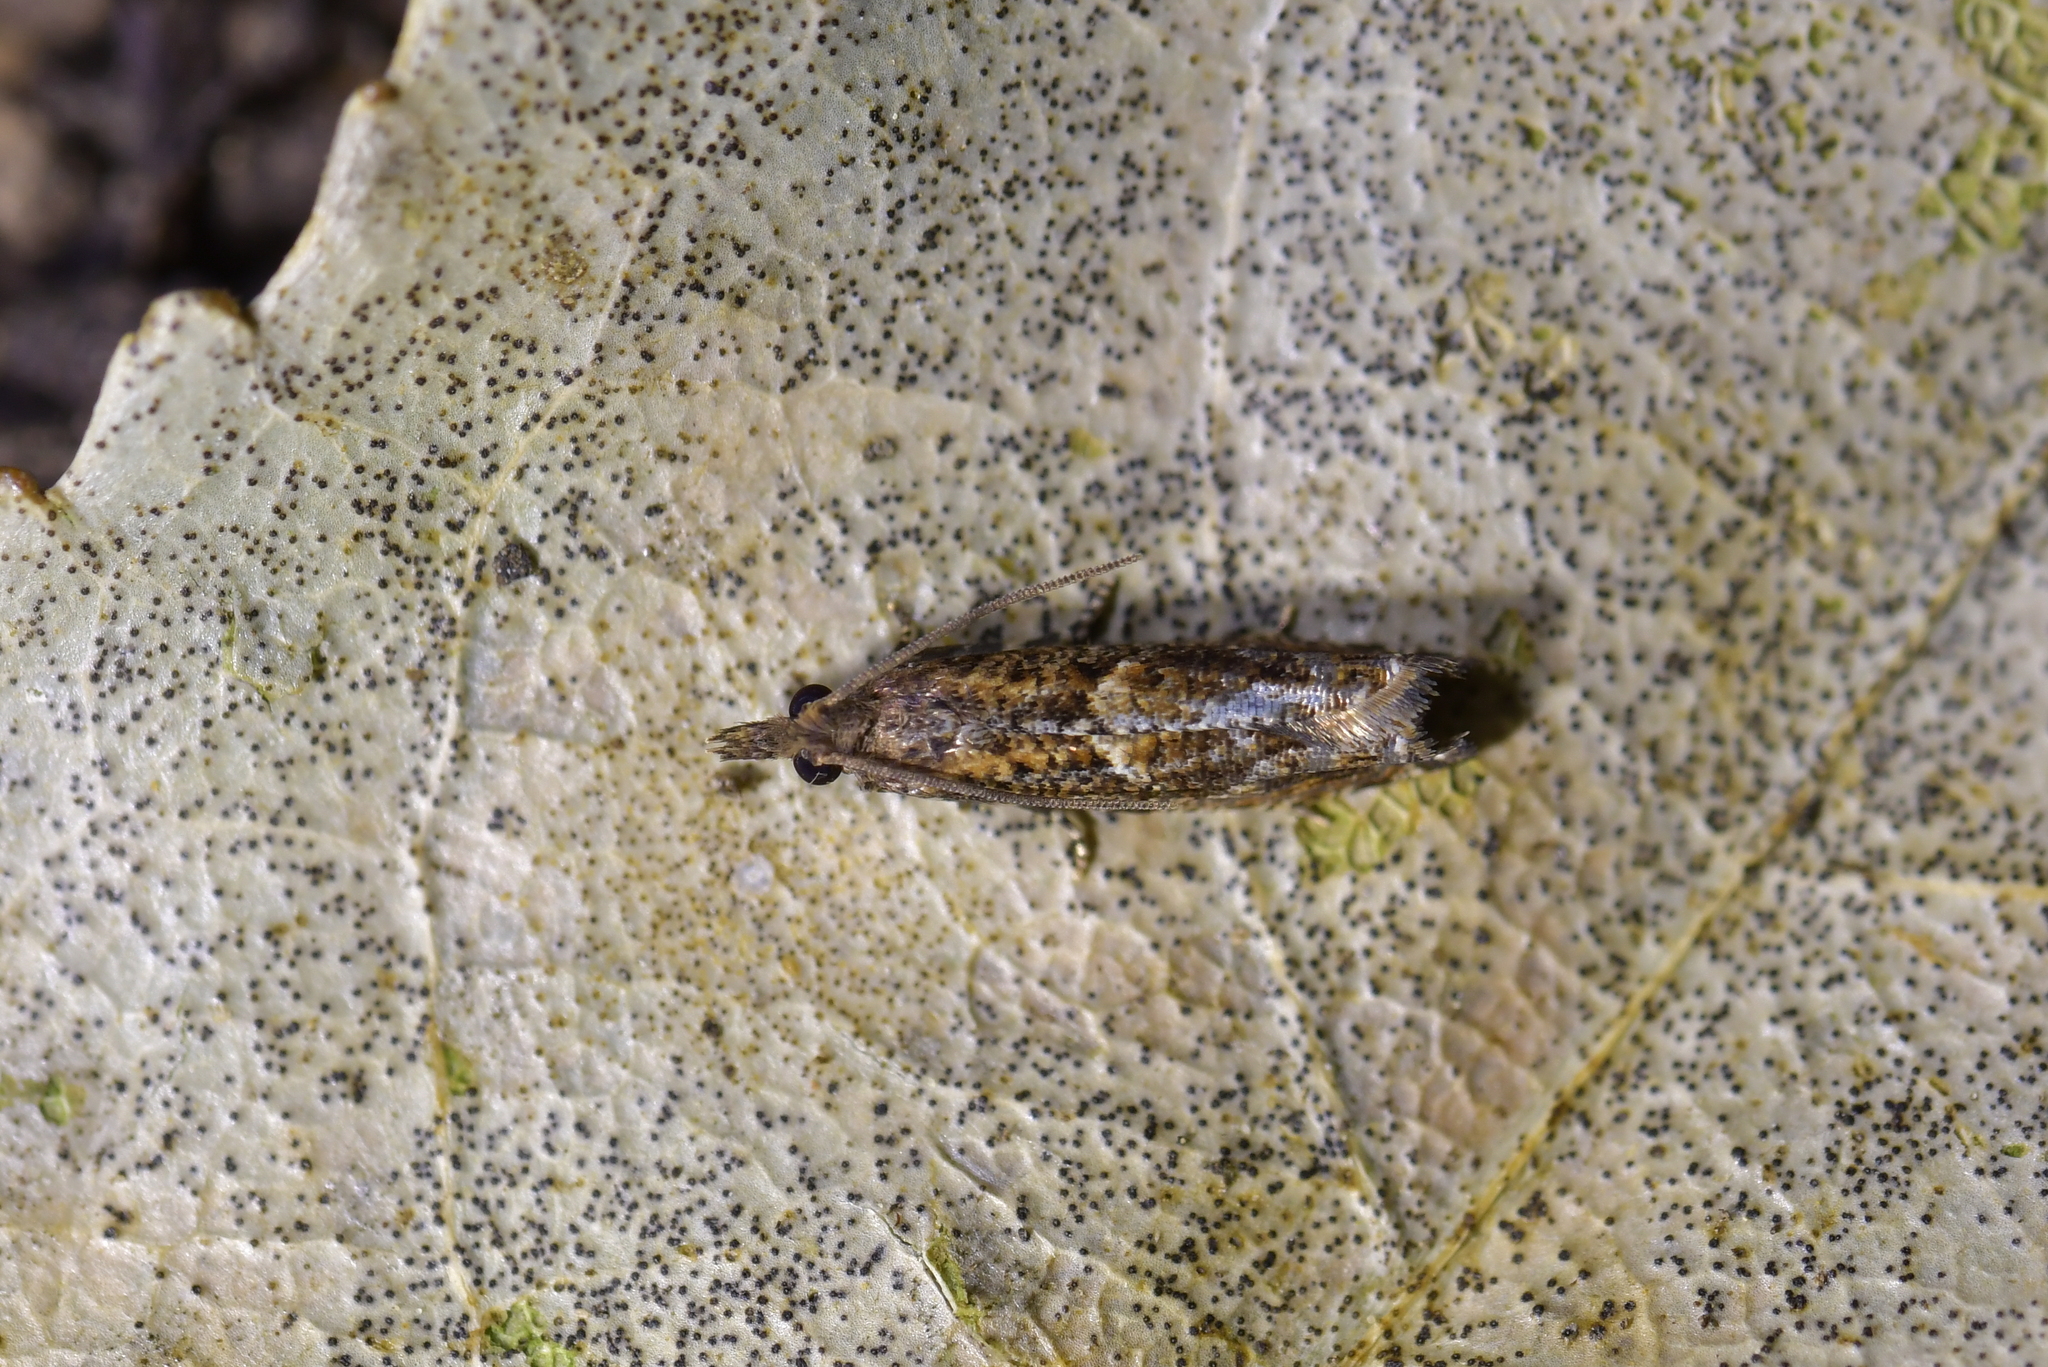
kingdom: Animalia
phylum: Arthropoda
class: Insecta
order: Lepidoptera
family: Tortricidae
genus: Strepsicrates
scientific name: Strepsicrates sideritis
